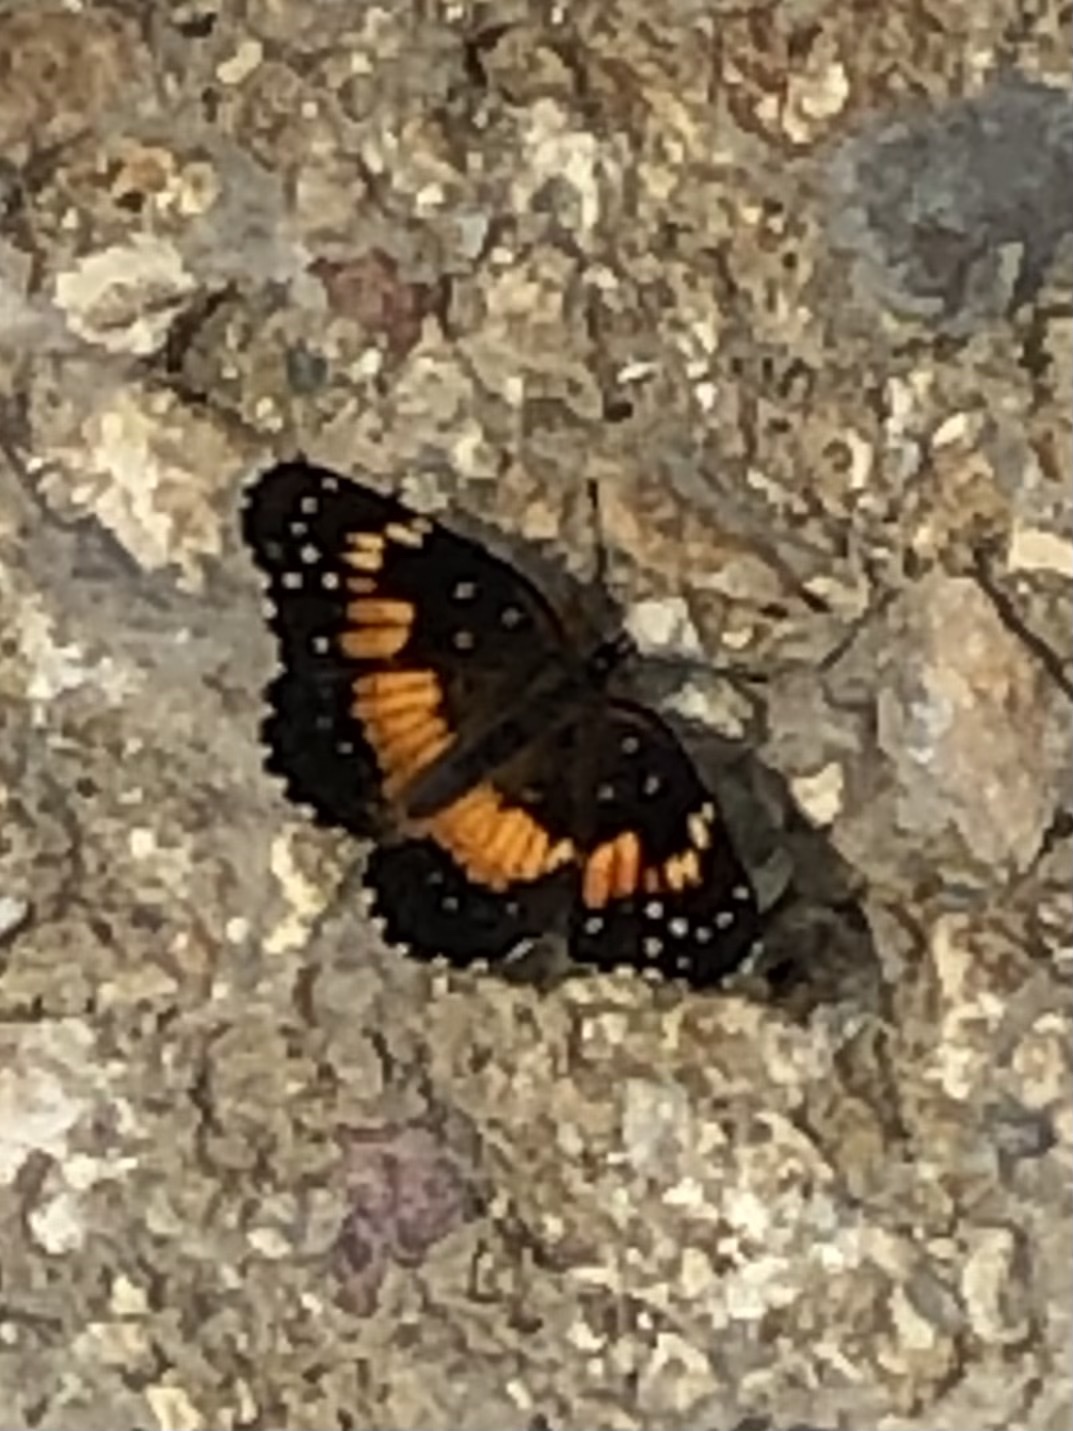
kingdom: Animalia
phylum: Arthropoda
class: Insecta
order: Lepidoptera
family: Nymphalidae
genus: Chlosyne
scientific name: Chlosyne lacinia
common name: Bordered patch
